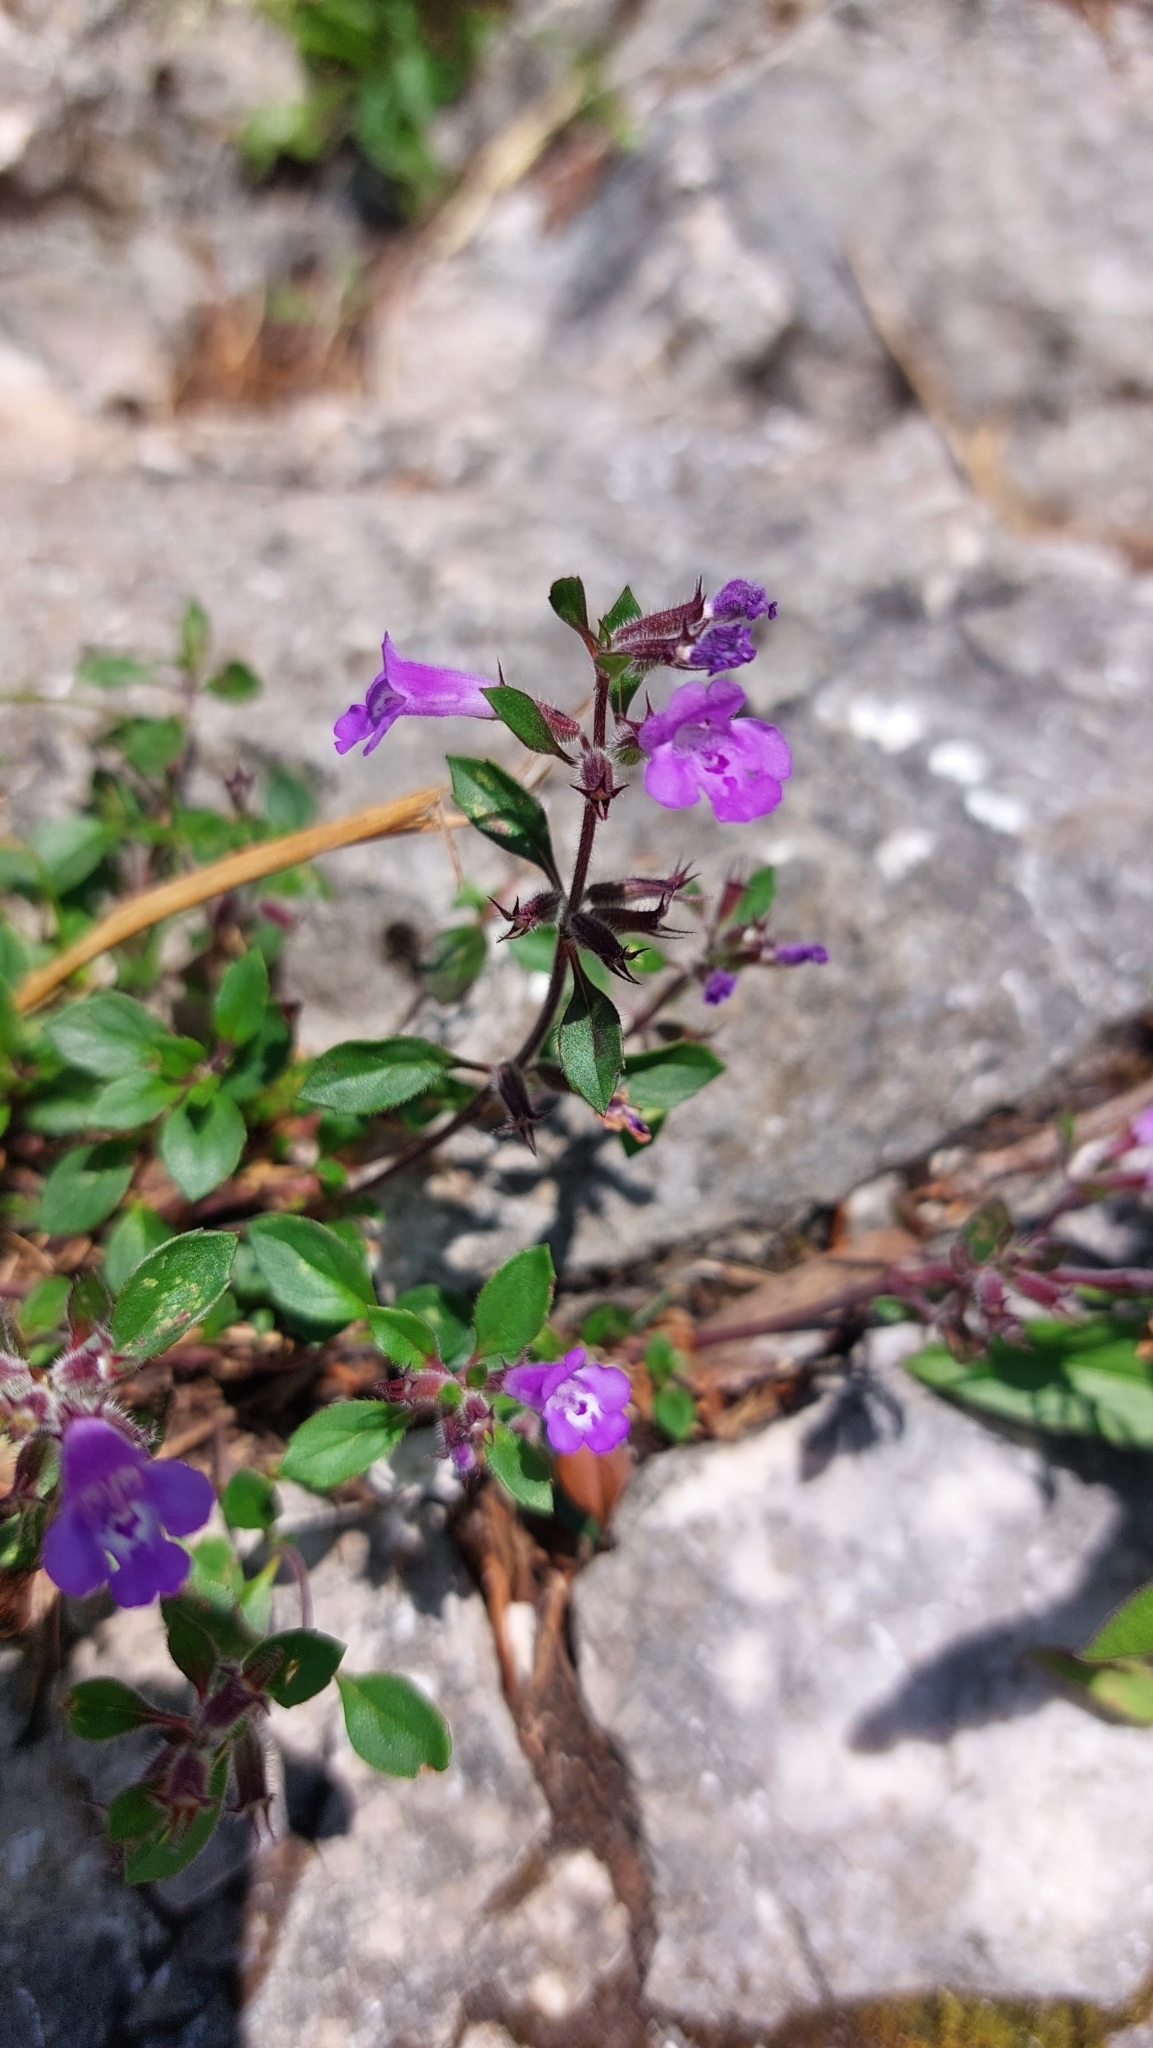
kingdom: Plantae
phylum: Tracheophyta
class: Magnoliopsida
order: Lamiales
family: Lamiaceae
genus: Clinopodium
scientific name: Clinopodium alpinum
